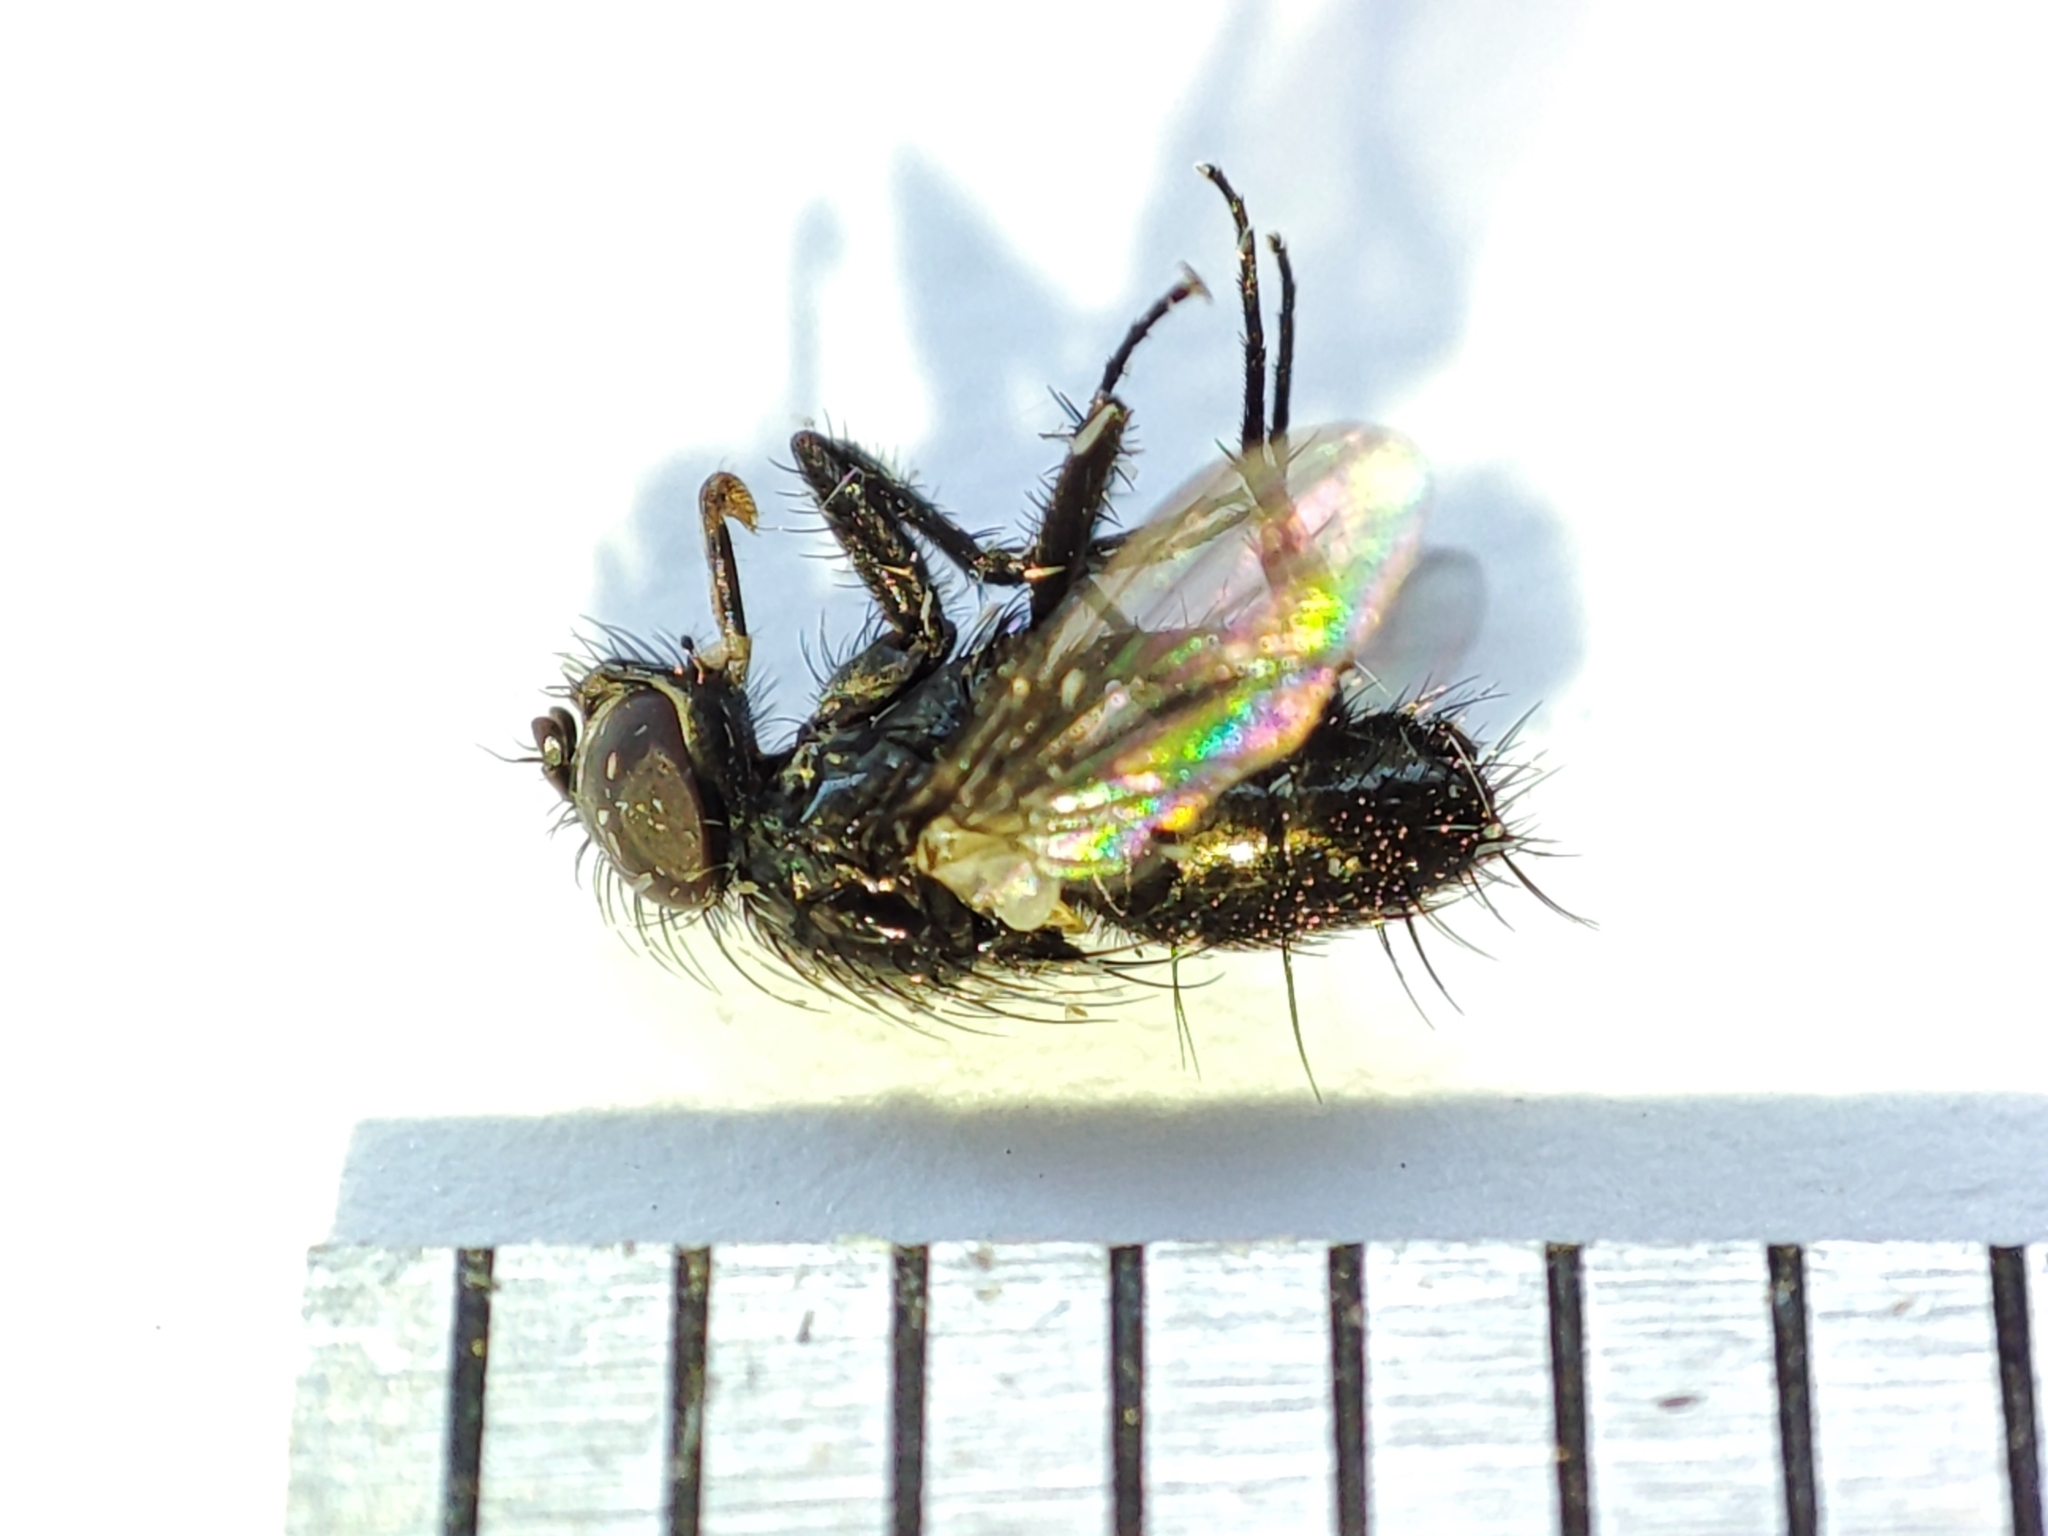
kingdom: Animalia
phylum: Arthropoda
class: Insecta
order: Diptera
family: Calliphoridae
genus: Rhinophora
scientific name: Rhinophora lepida
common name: Pouting woodlouse-fly
